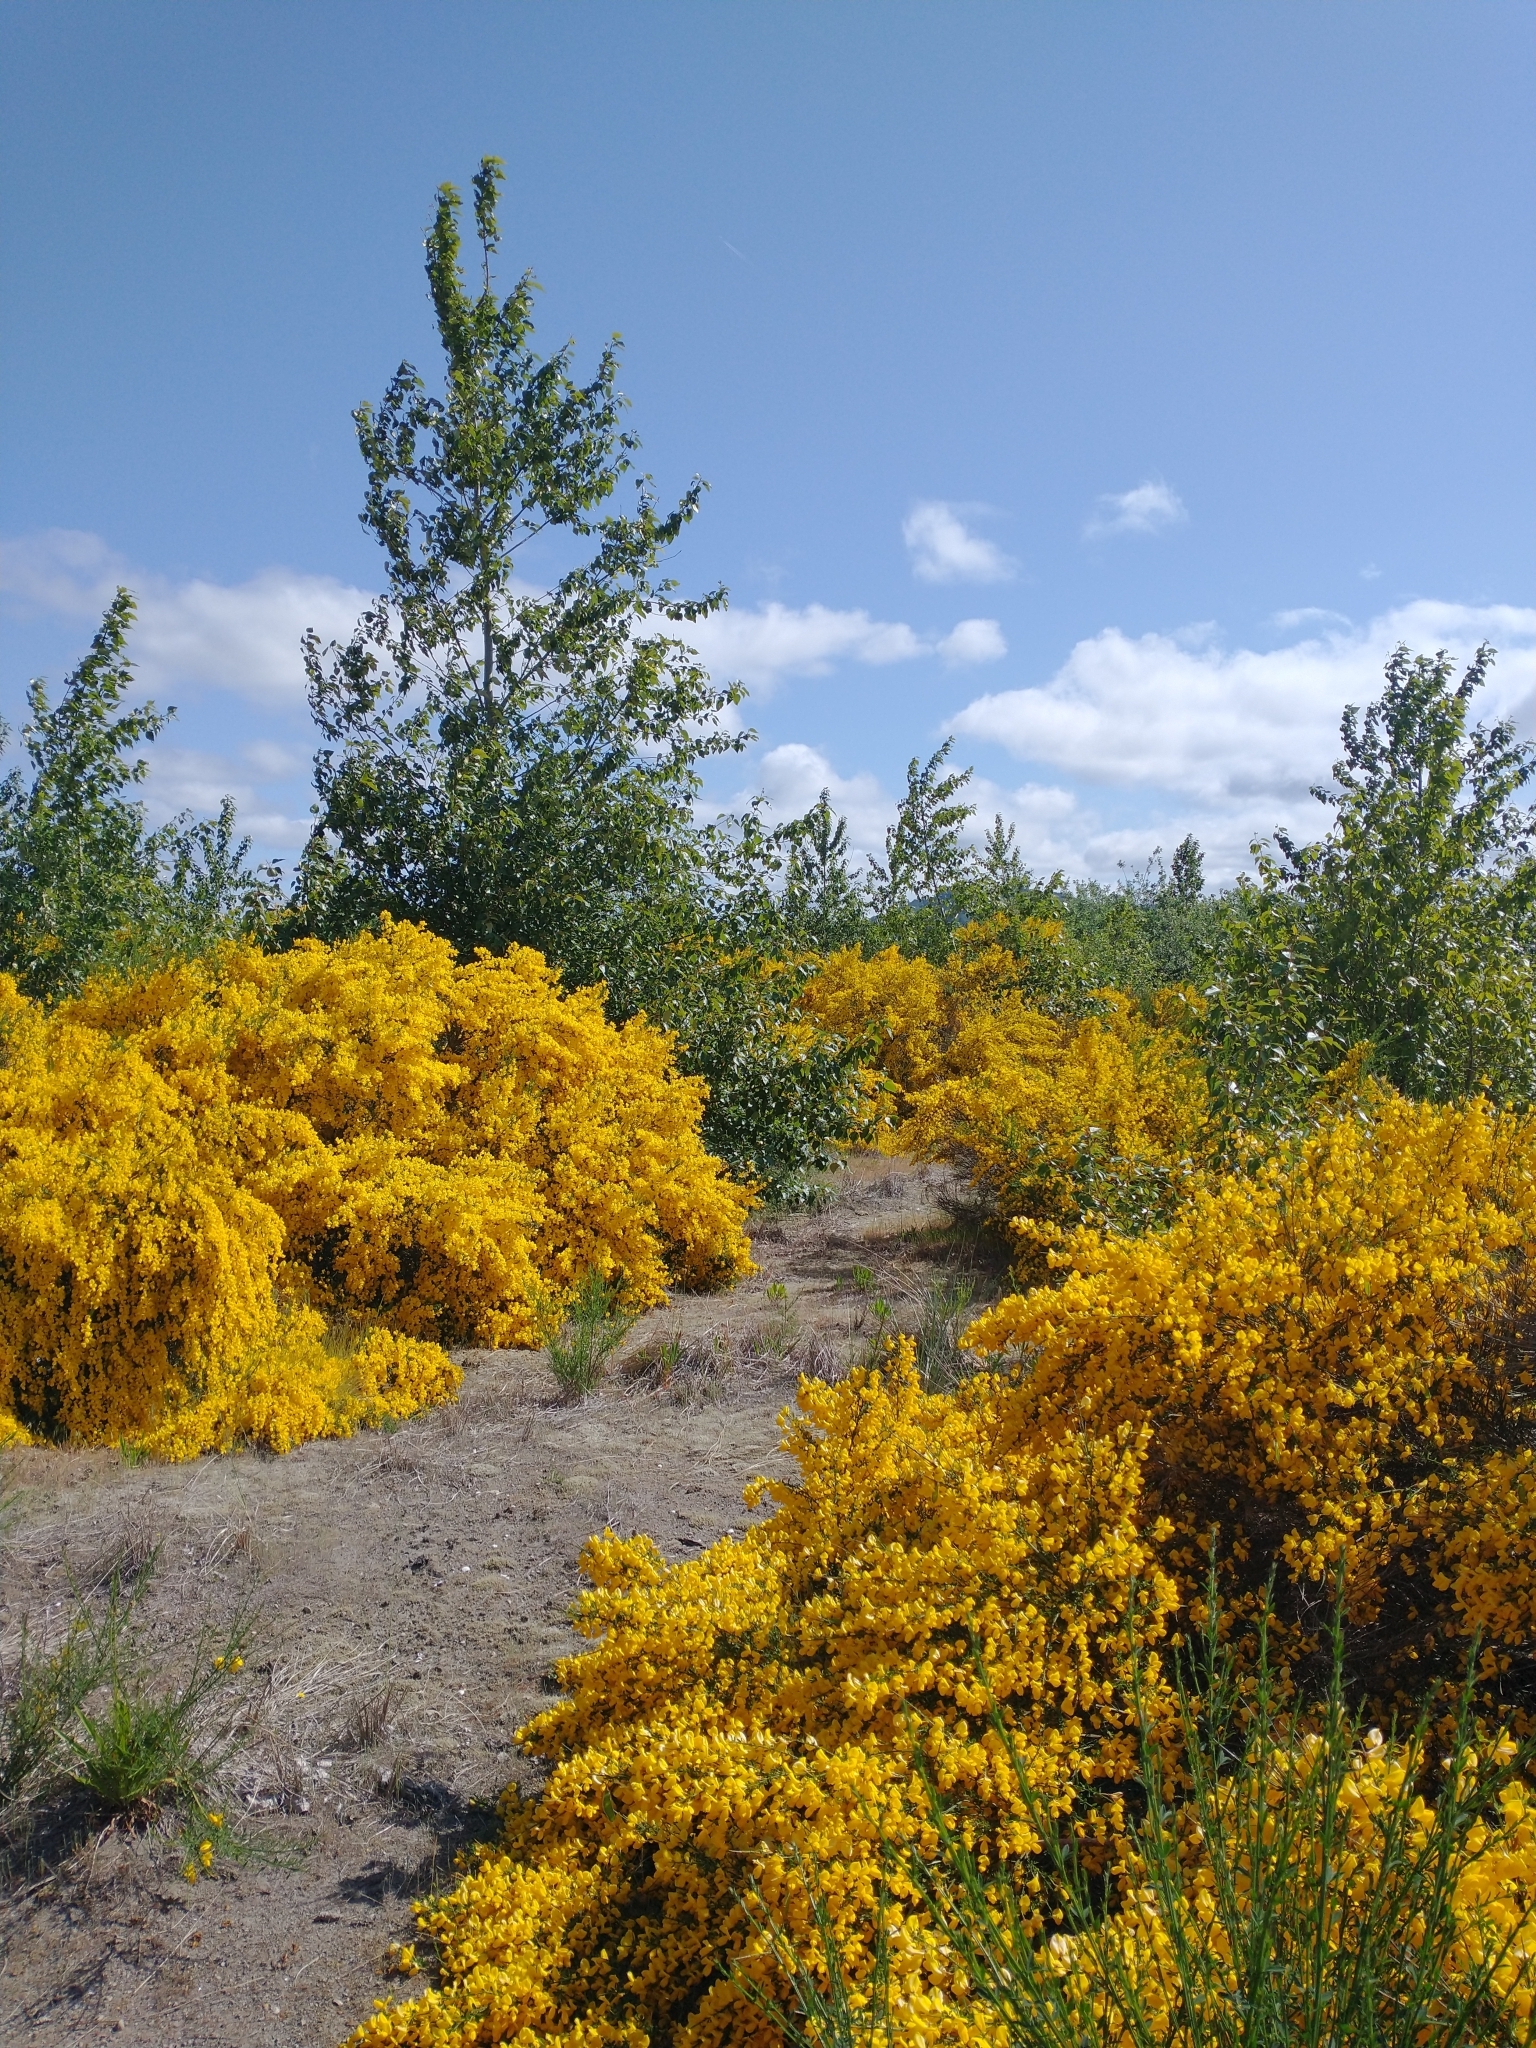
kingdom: Plantae
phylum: Tracheophyta
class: Magnoliopsida
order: Fabales
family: Fabaceae
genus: Cytisus
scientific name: Cytisus scoparius
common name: Scotch broom
